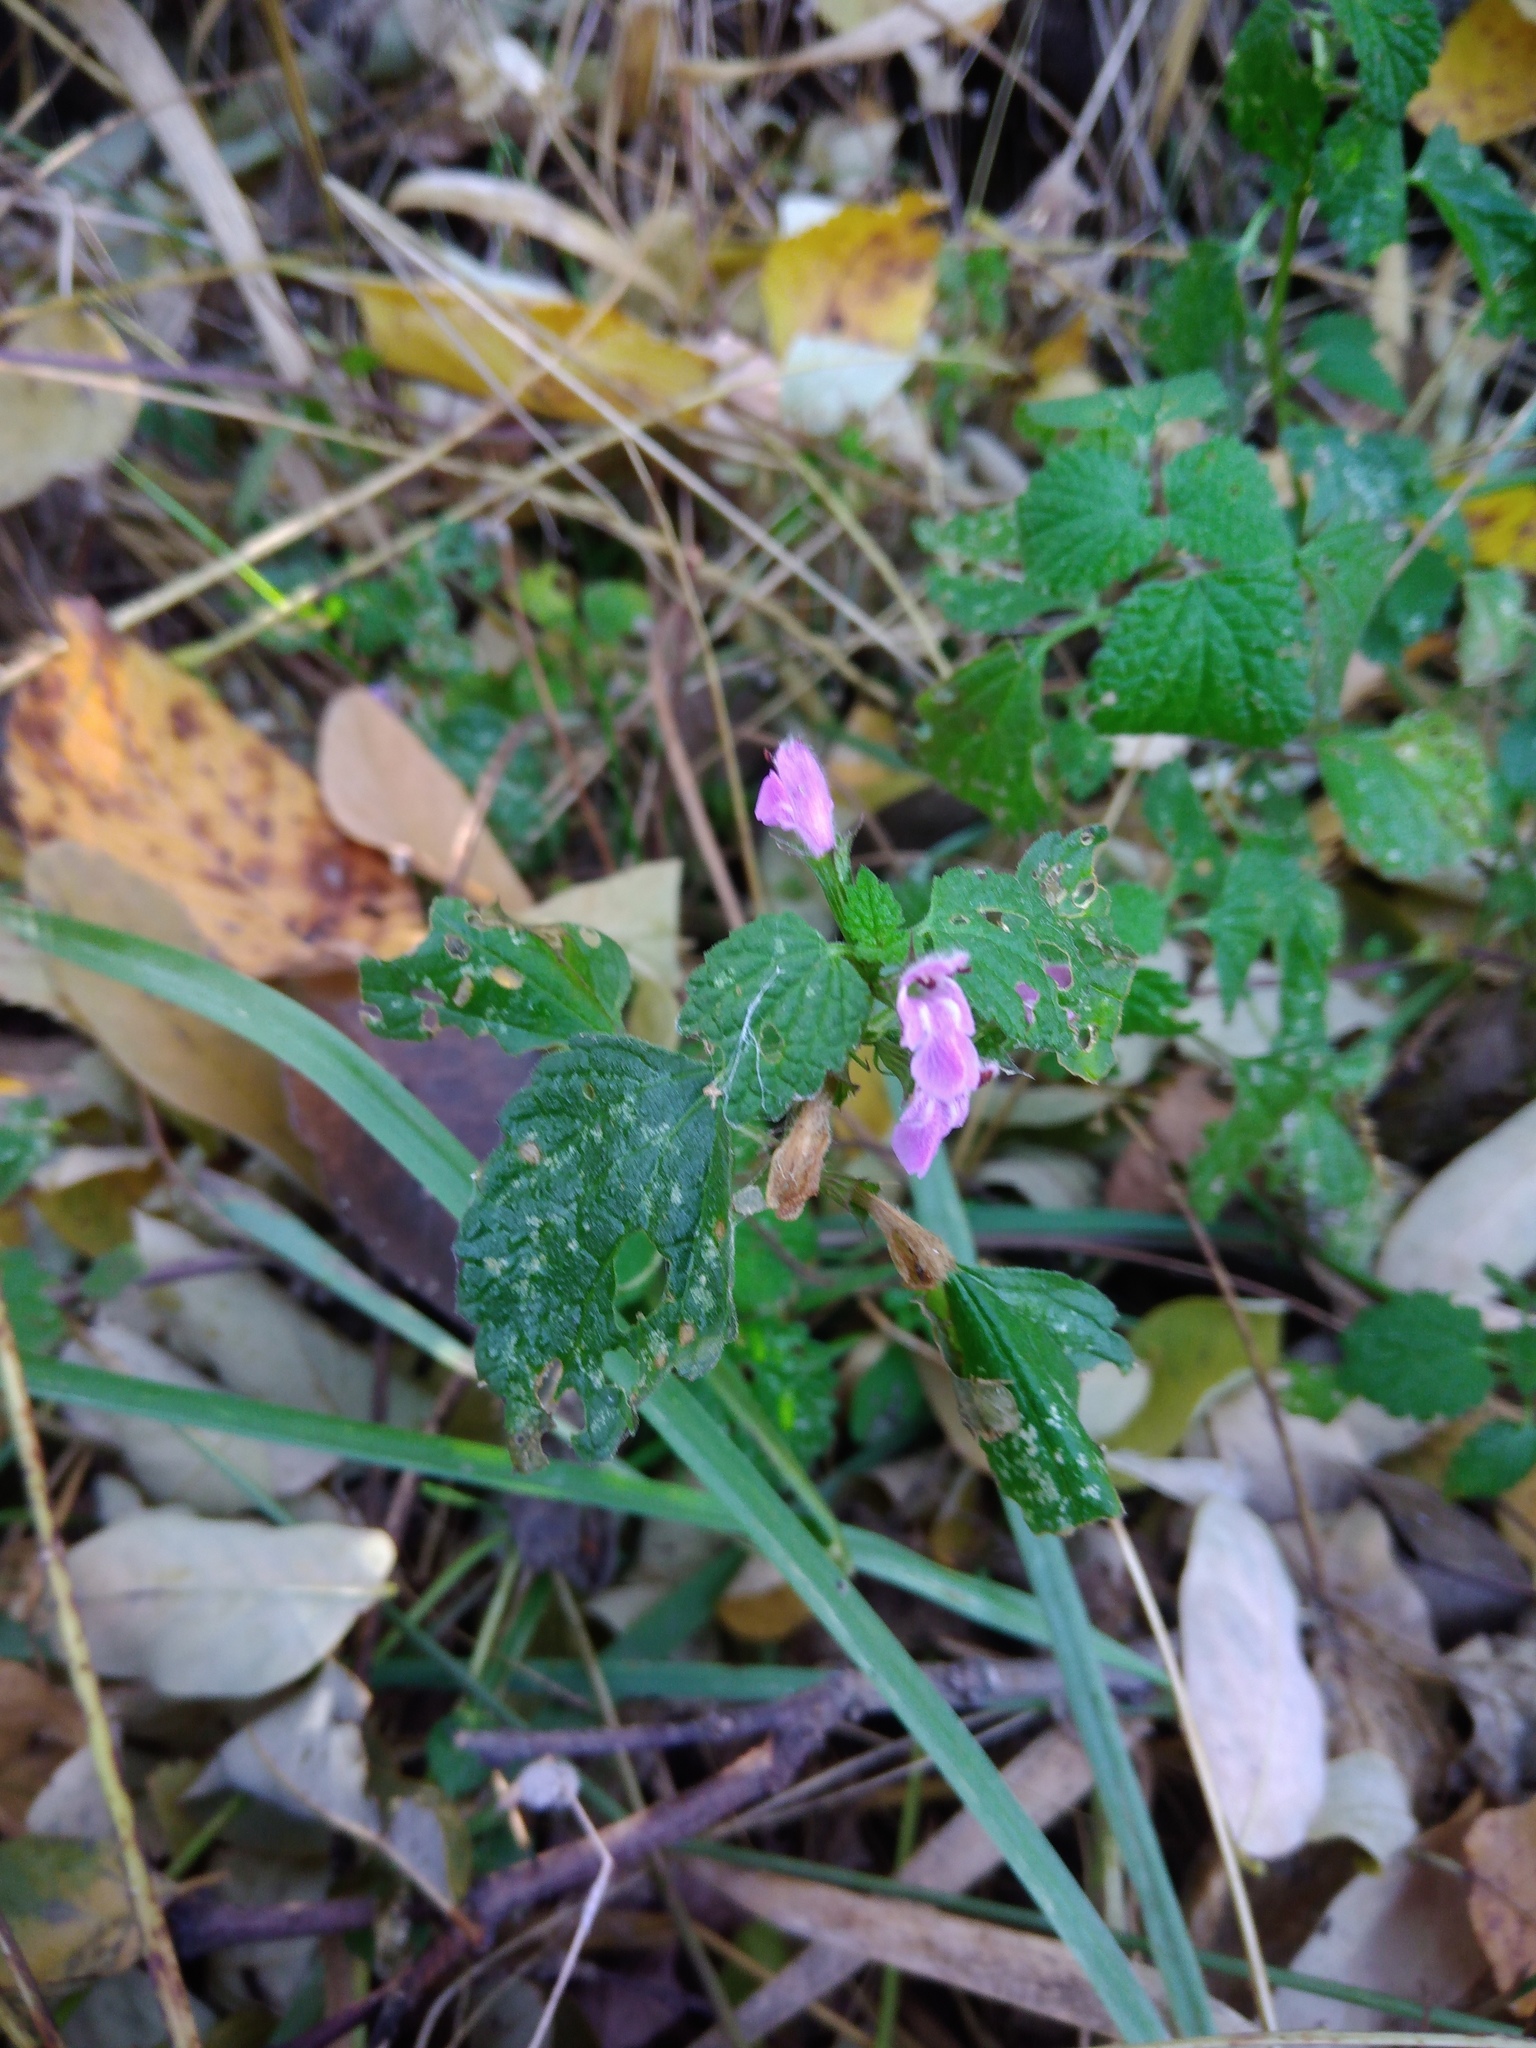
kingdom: Plantae
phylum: Tracheophyta
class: Magnoliopsida
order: Lamiales
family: Lamiaceae
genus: Ballota
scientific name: Ballota nigra
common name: Black horehound
